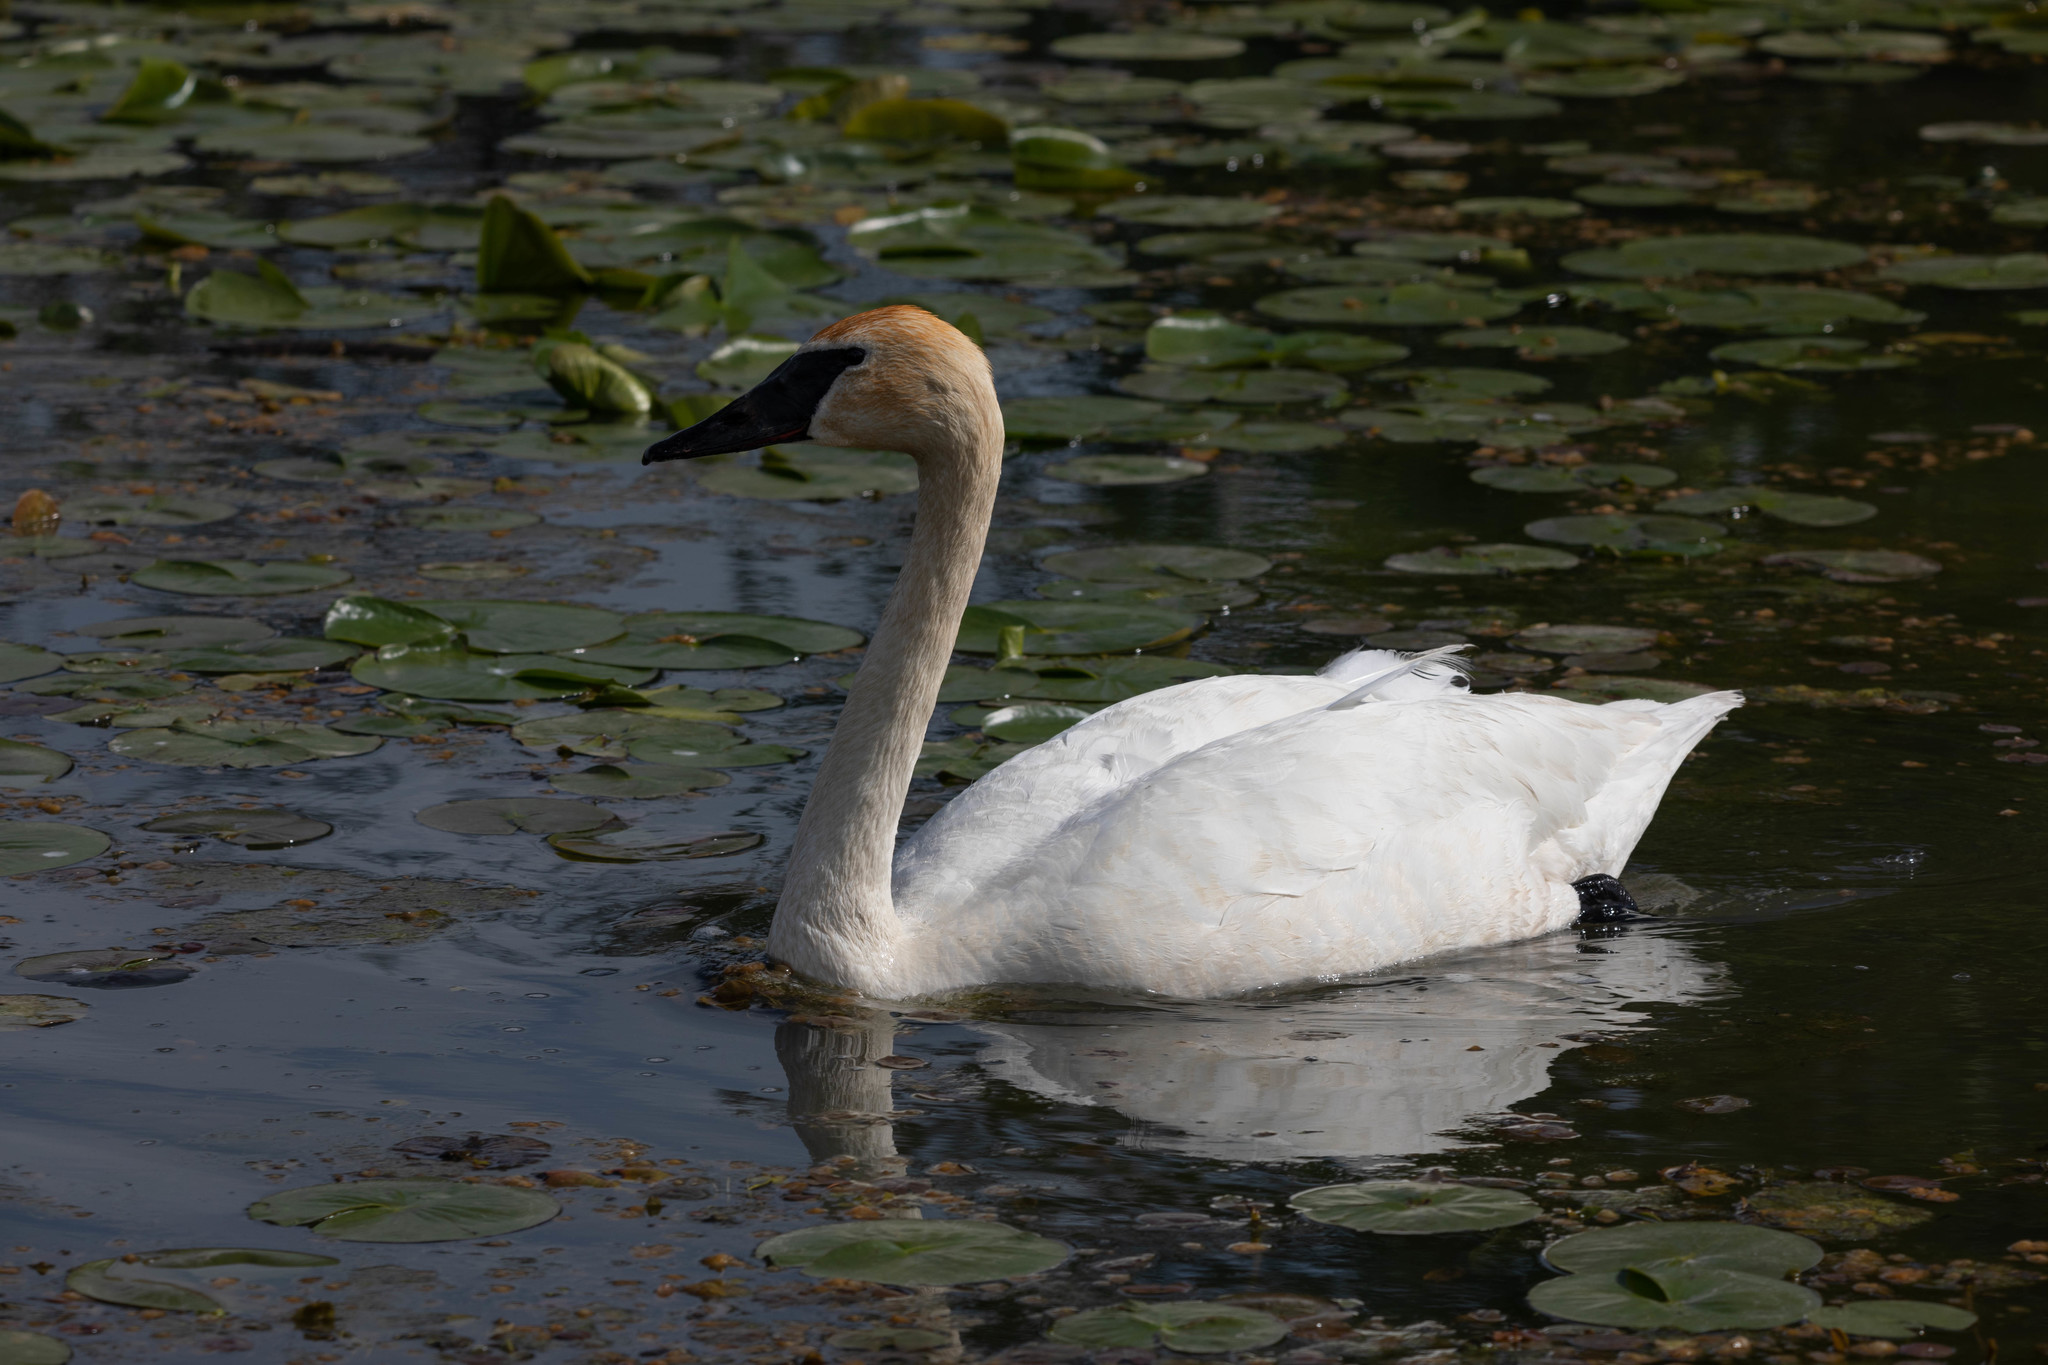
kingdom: Animalia
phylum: Chordata
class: Aves
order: Anseriformes
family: Anatidae
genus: Cygnus
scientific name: Cygnus buccinator
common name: Trumpeter swan
